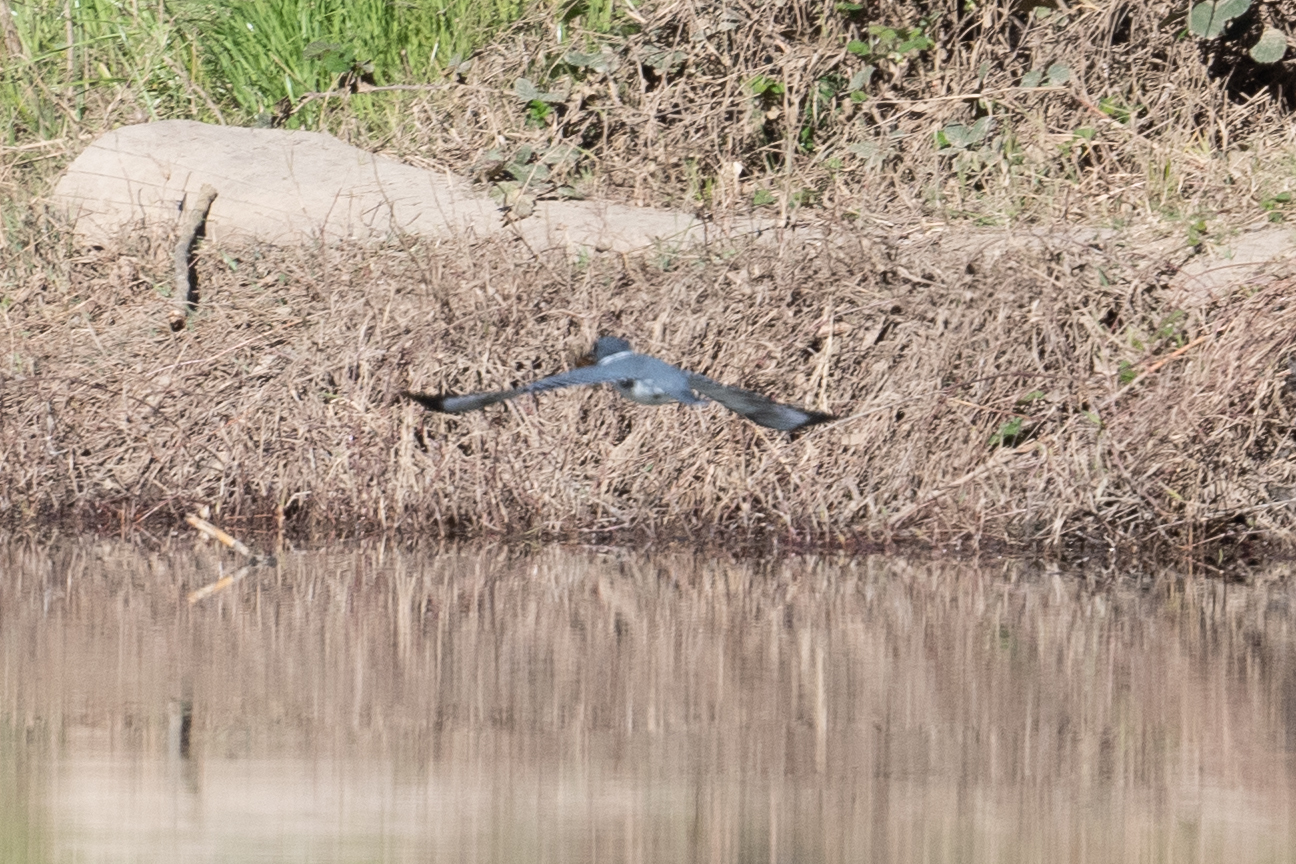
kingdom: Animalia
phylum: Chordata
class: Aves
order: Coraciiformes
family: Alcedinidae
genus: Megaceryle
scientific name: Megaceryle alcyon
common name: Belted kingfisher
